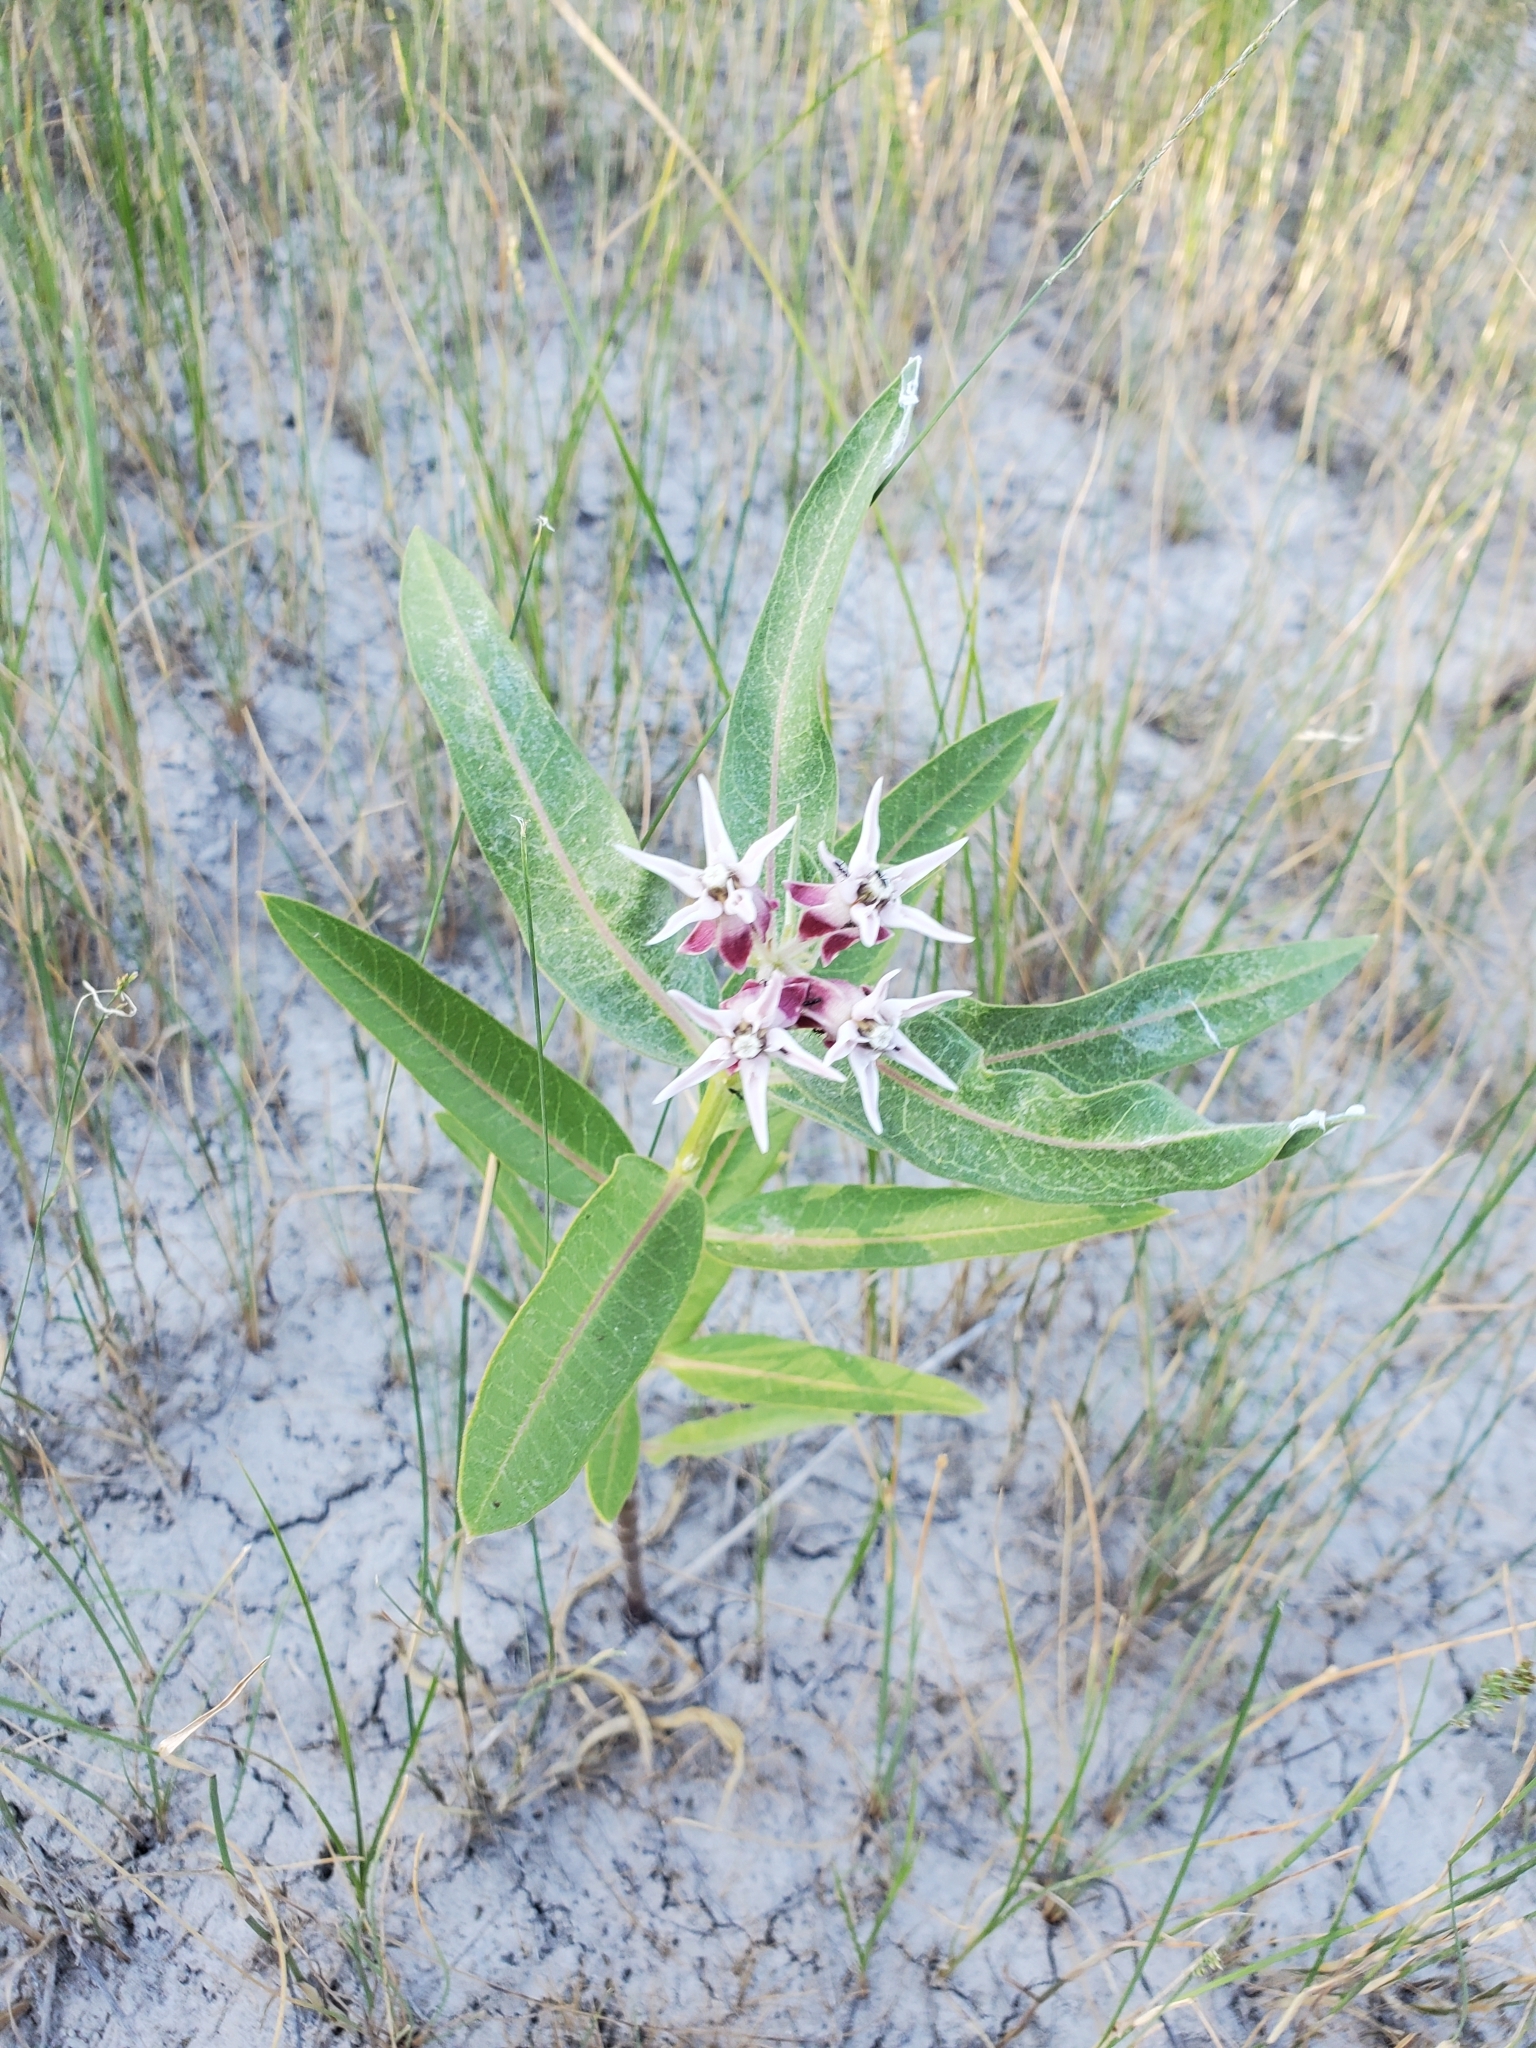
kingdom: Plantae
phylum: Tracheophyta
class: Magnoliopsida
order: Gentianales
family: Apocynaceae
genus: Asclepias
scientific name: Asclepias speciosa
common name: Showy milkweed
